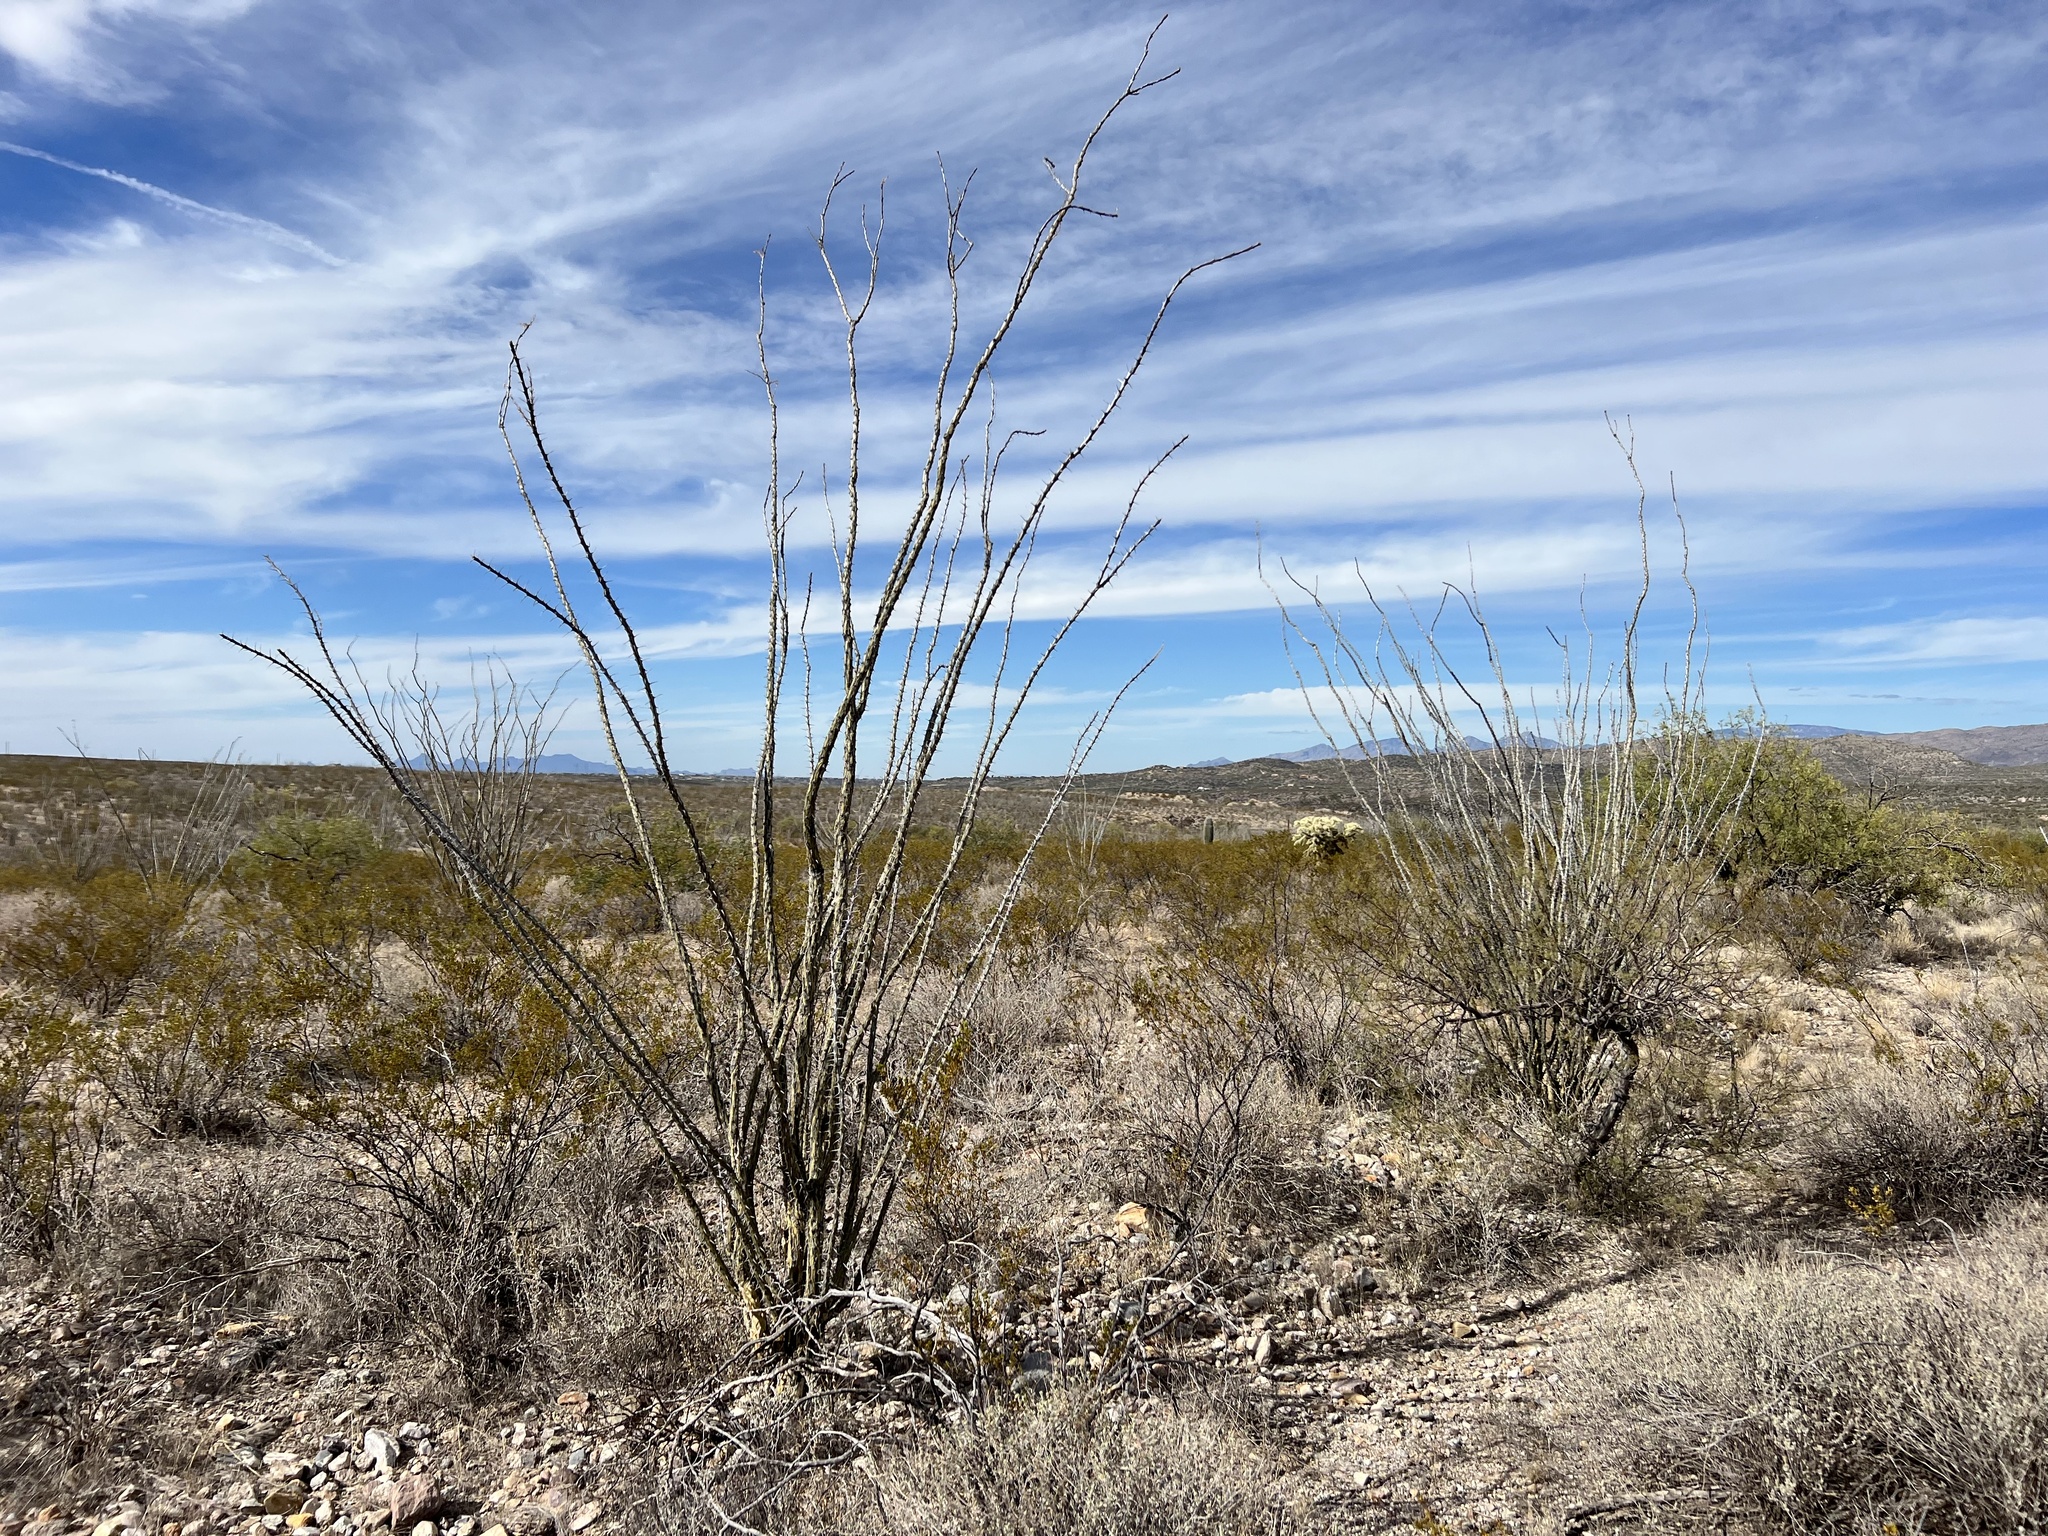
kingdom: Plantae
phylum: Tracheophyta
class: Magnoliopsida
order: Ericales
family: Fouquieriaceae
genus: Fouquieria
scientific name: Fouquieria splendens
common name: Vine-cactus
